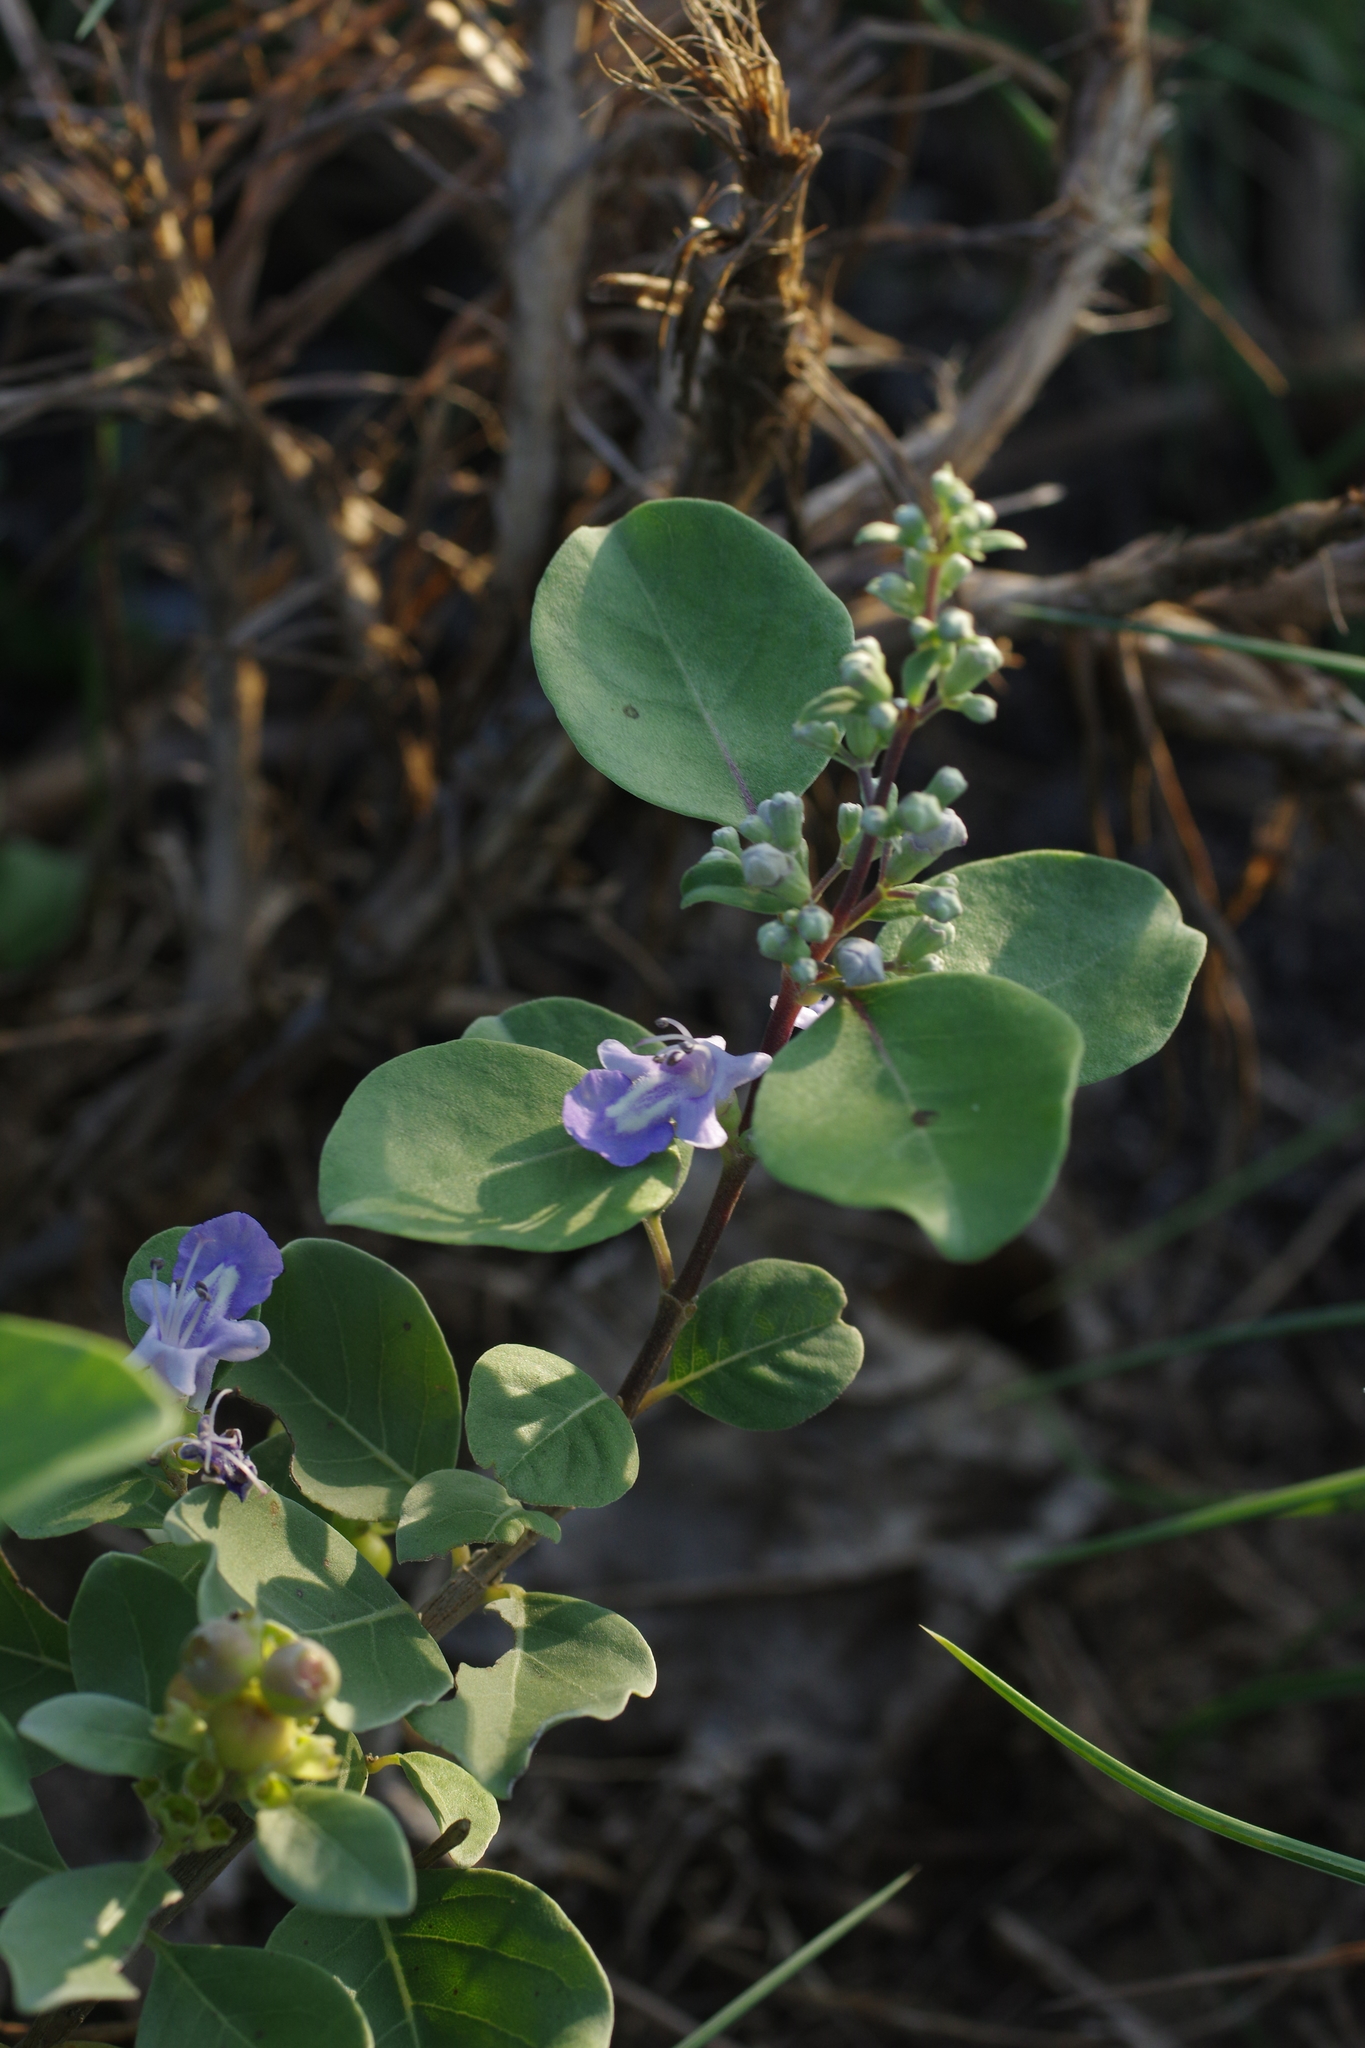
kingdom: Plantae
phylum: Tracheophyta
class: Magnoliopsida
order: Lamiales
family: Lamiaceae
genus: Vitex
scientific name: Vitex rotundifolia
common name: Beach vitex
